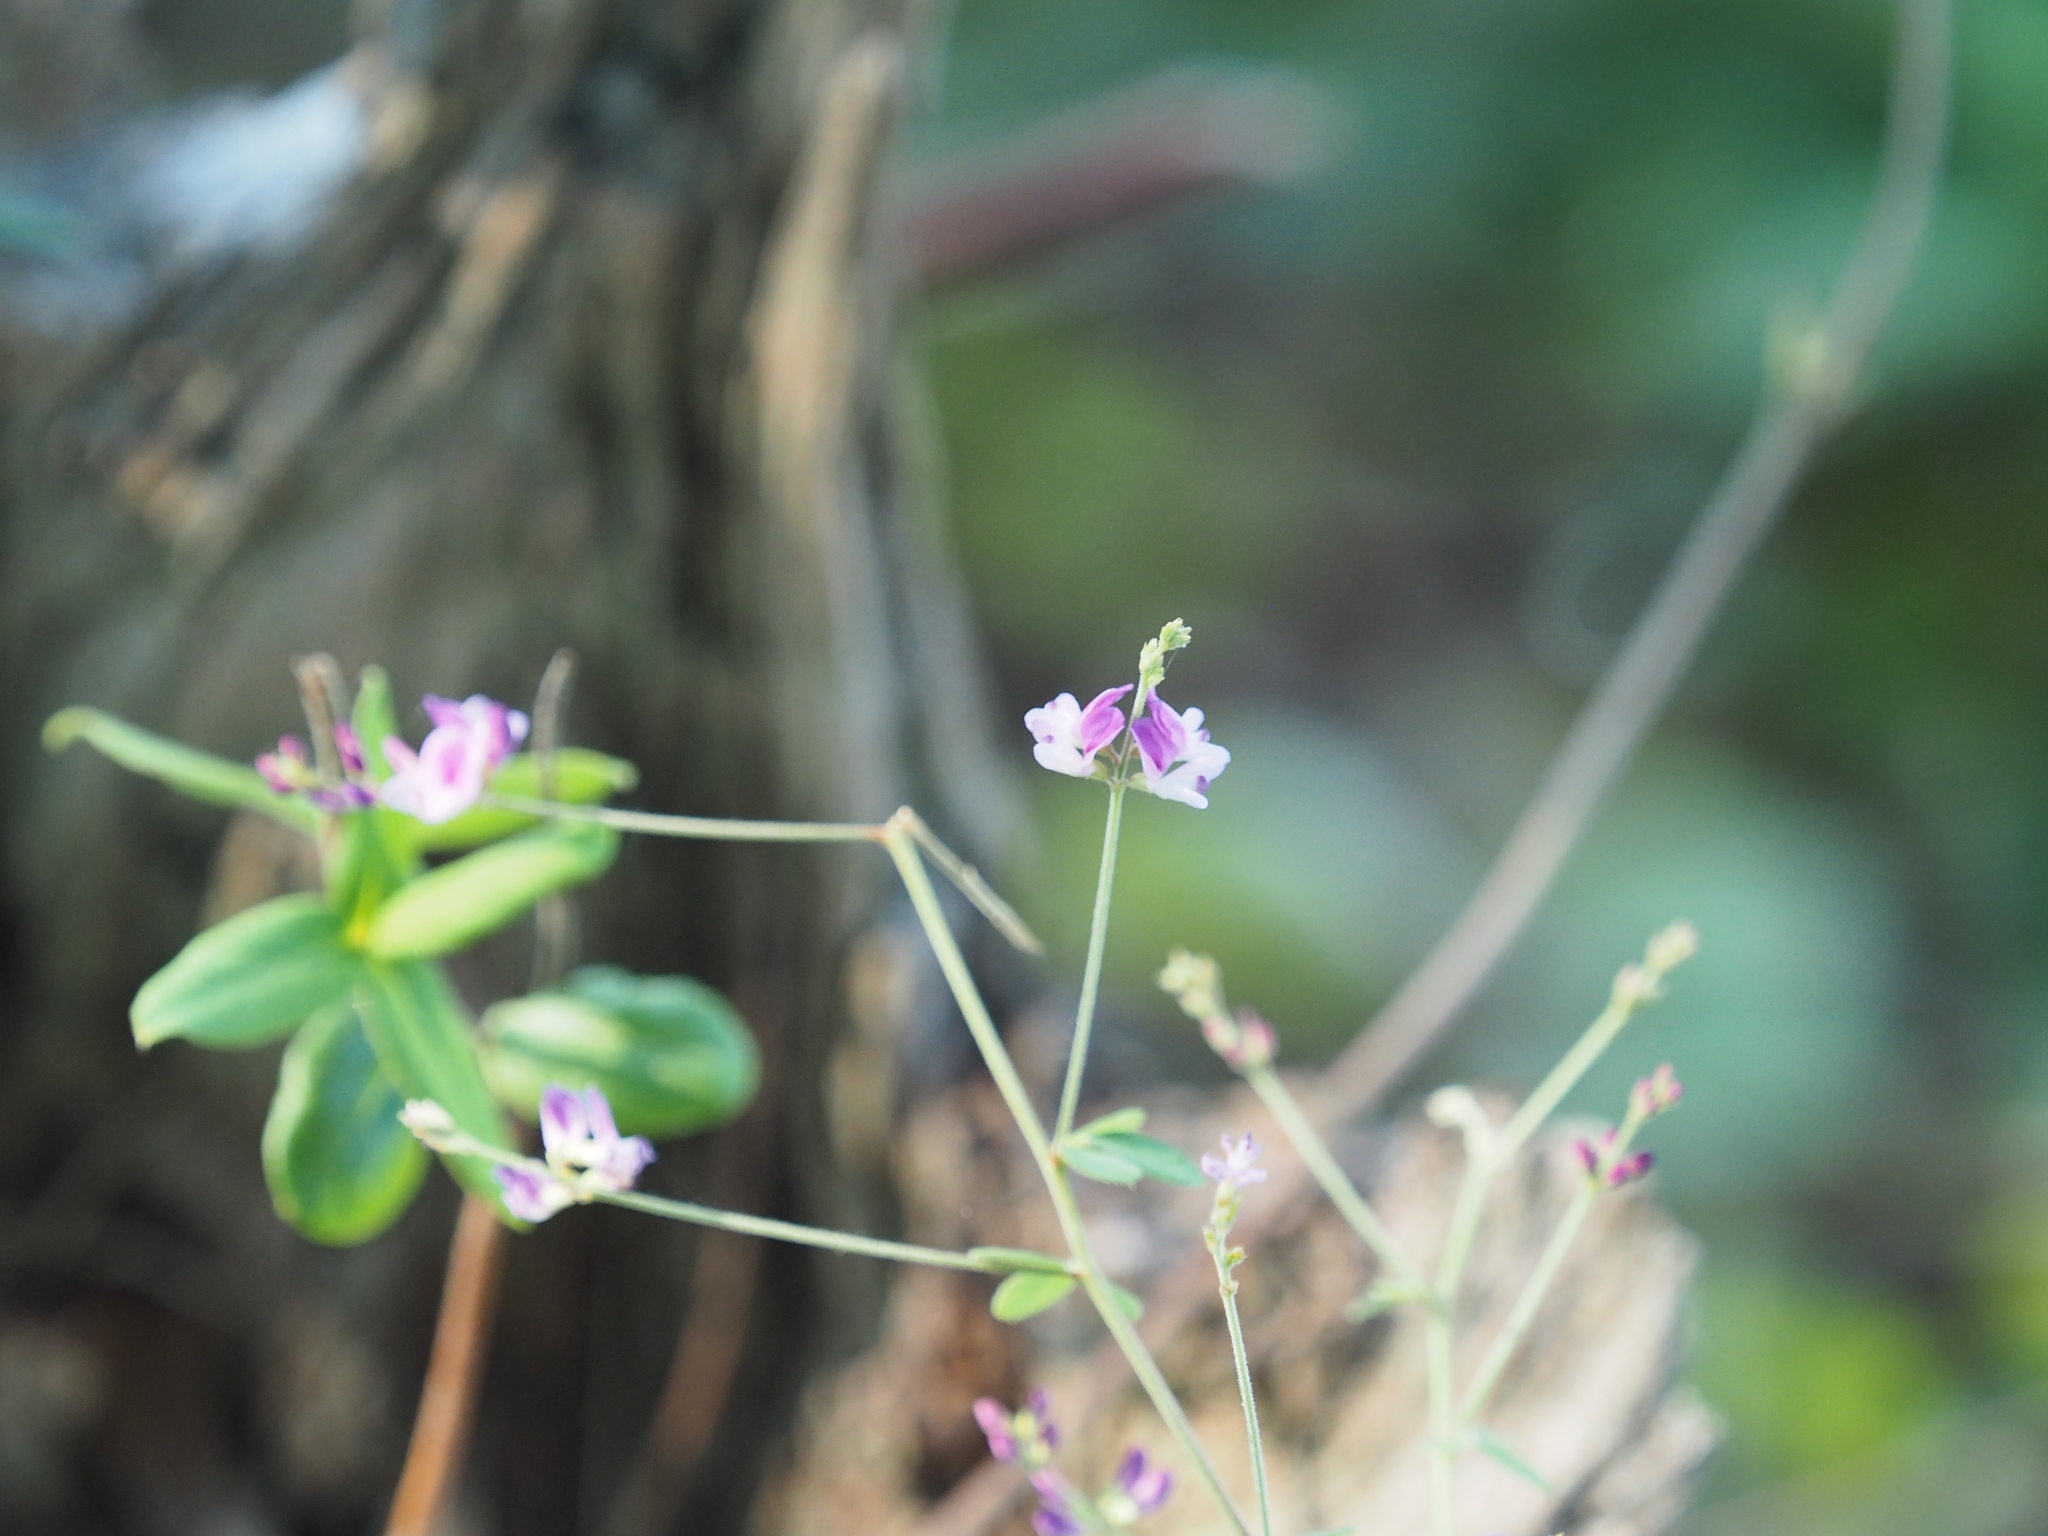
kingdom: Plantae
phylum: Tracheophyta
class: Magnoliopsida
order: Fabales
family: Fabaceae
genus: Lespedeza
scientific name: Lespedeza procumbens
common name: Downy trailing bush-clover
